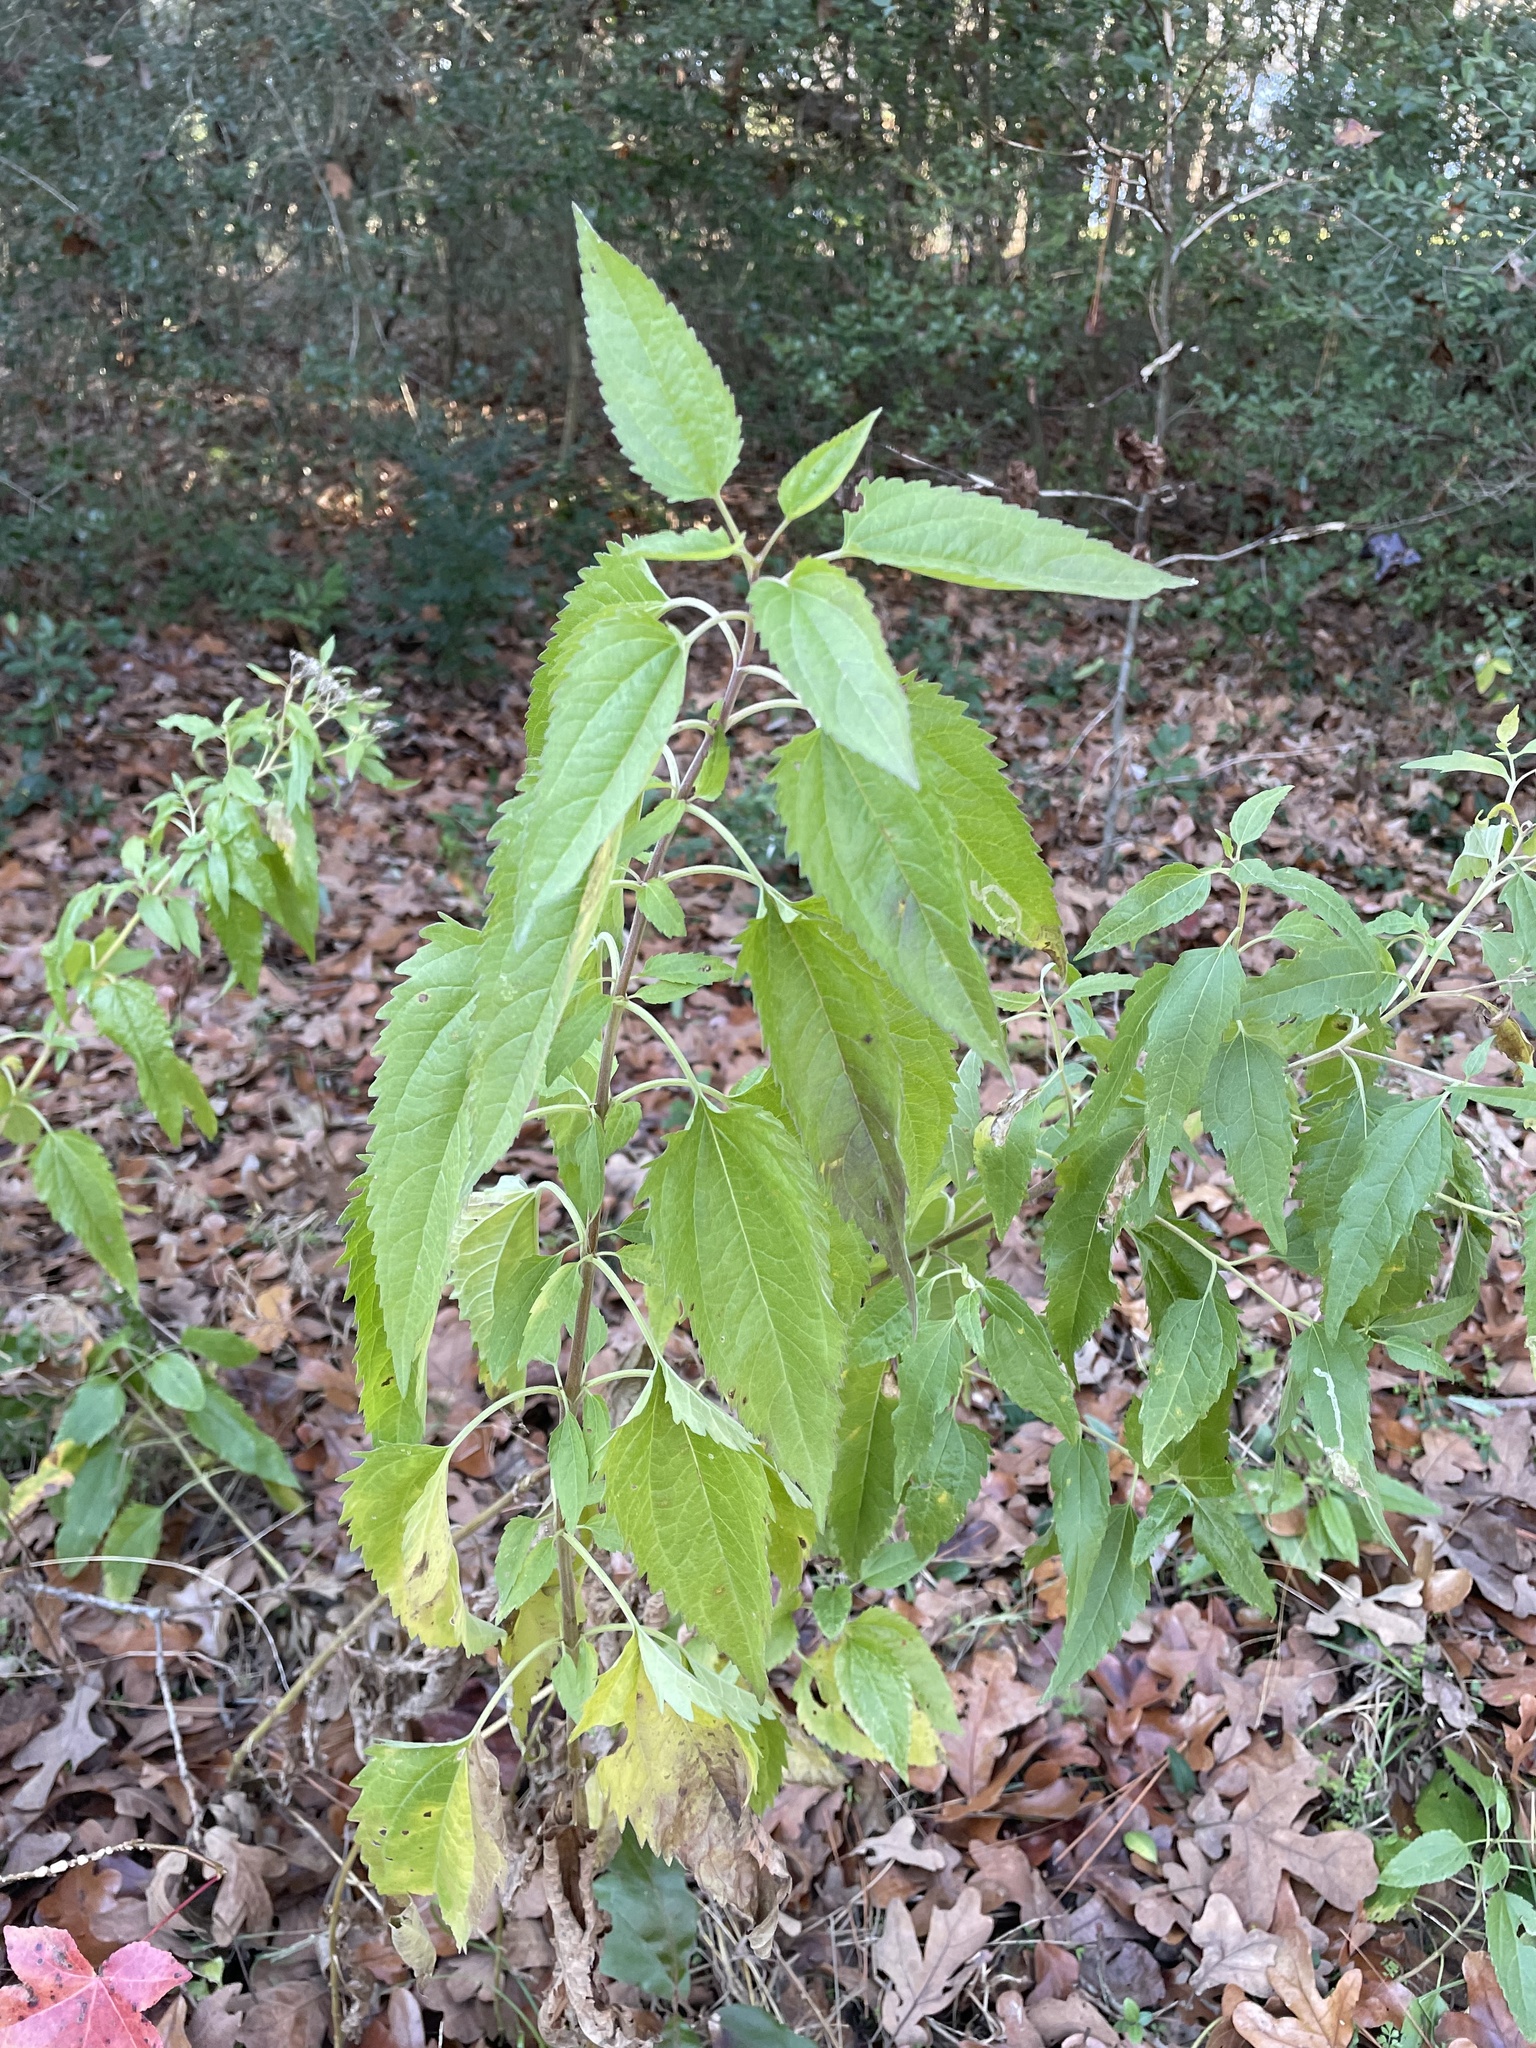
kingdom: Plantae
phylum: Tracheophyta
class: Magnoliopsida
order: Asterales
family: Asteraceae
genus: Eupatorium
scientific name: Eupatorium serotinum
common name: Late boneset
